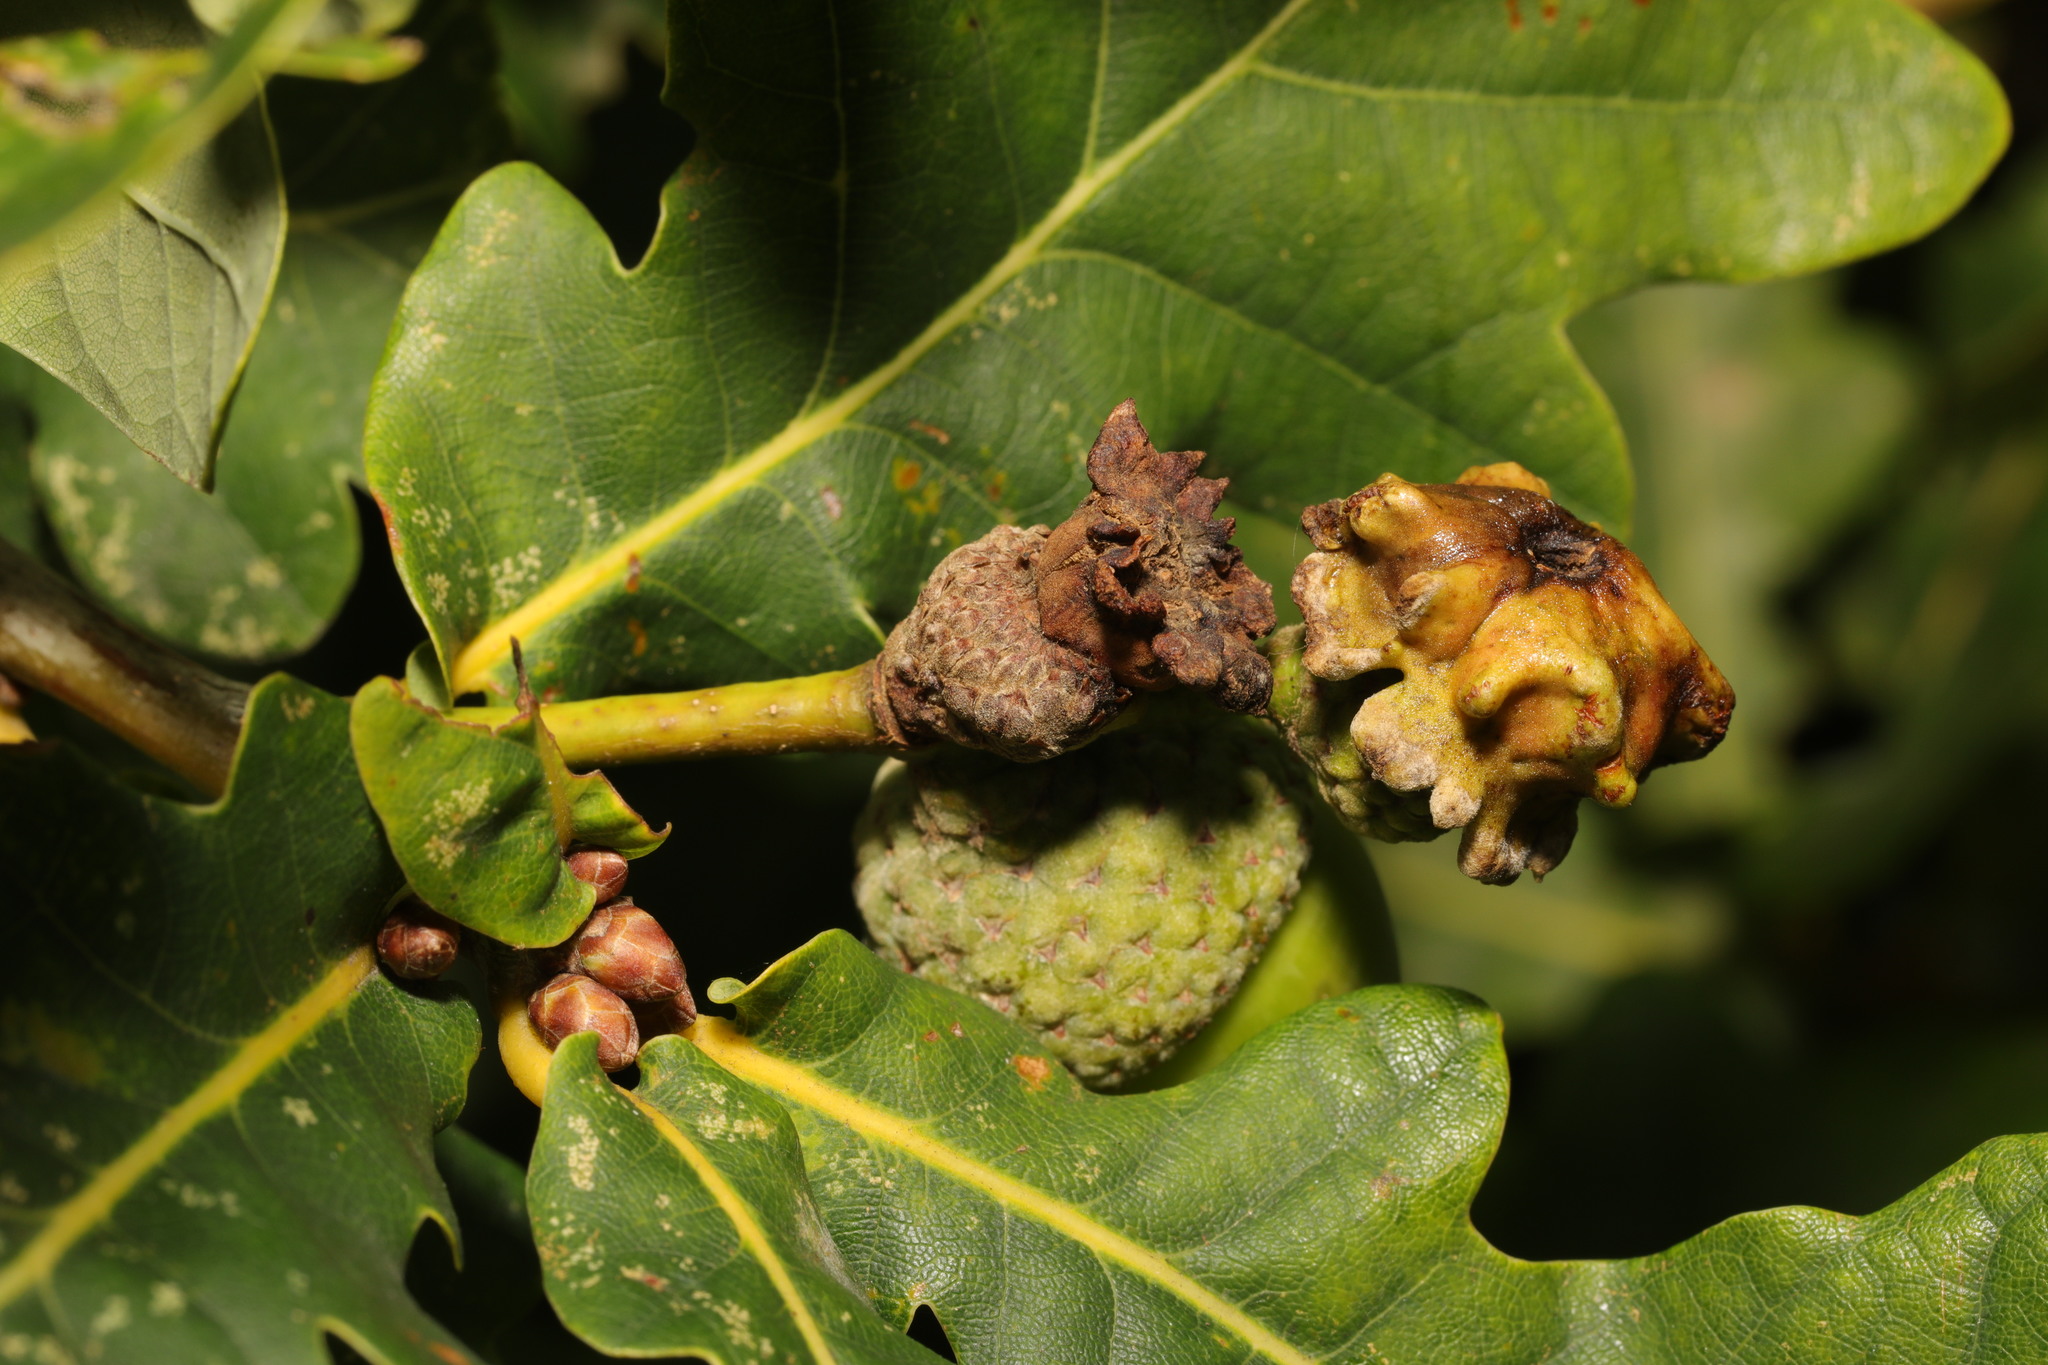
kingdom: Animalia
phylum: Arthropoda
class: Insecta
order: Hymenoptera
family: Cynipidae
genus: Andricus
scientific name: Andricus quercuscalicis
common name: Knopper gall
